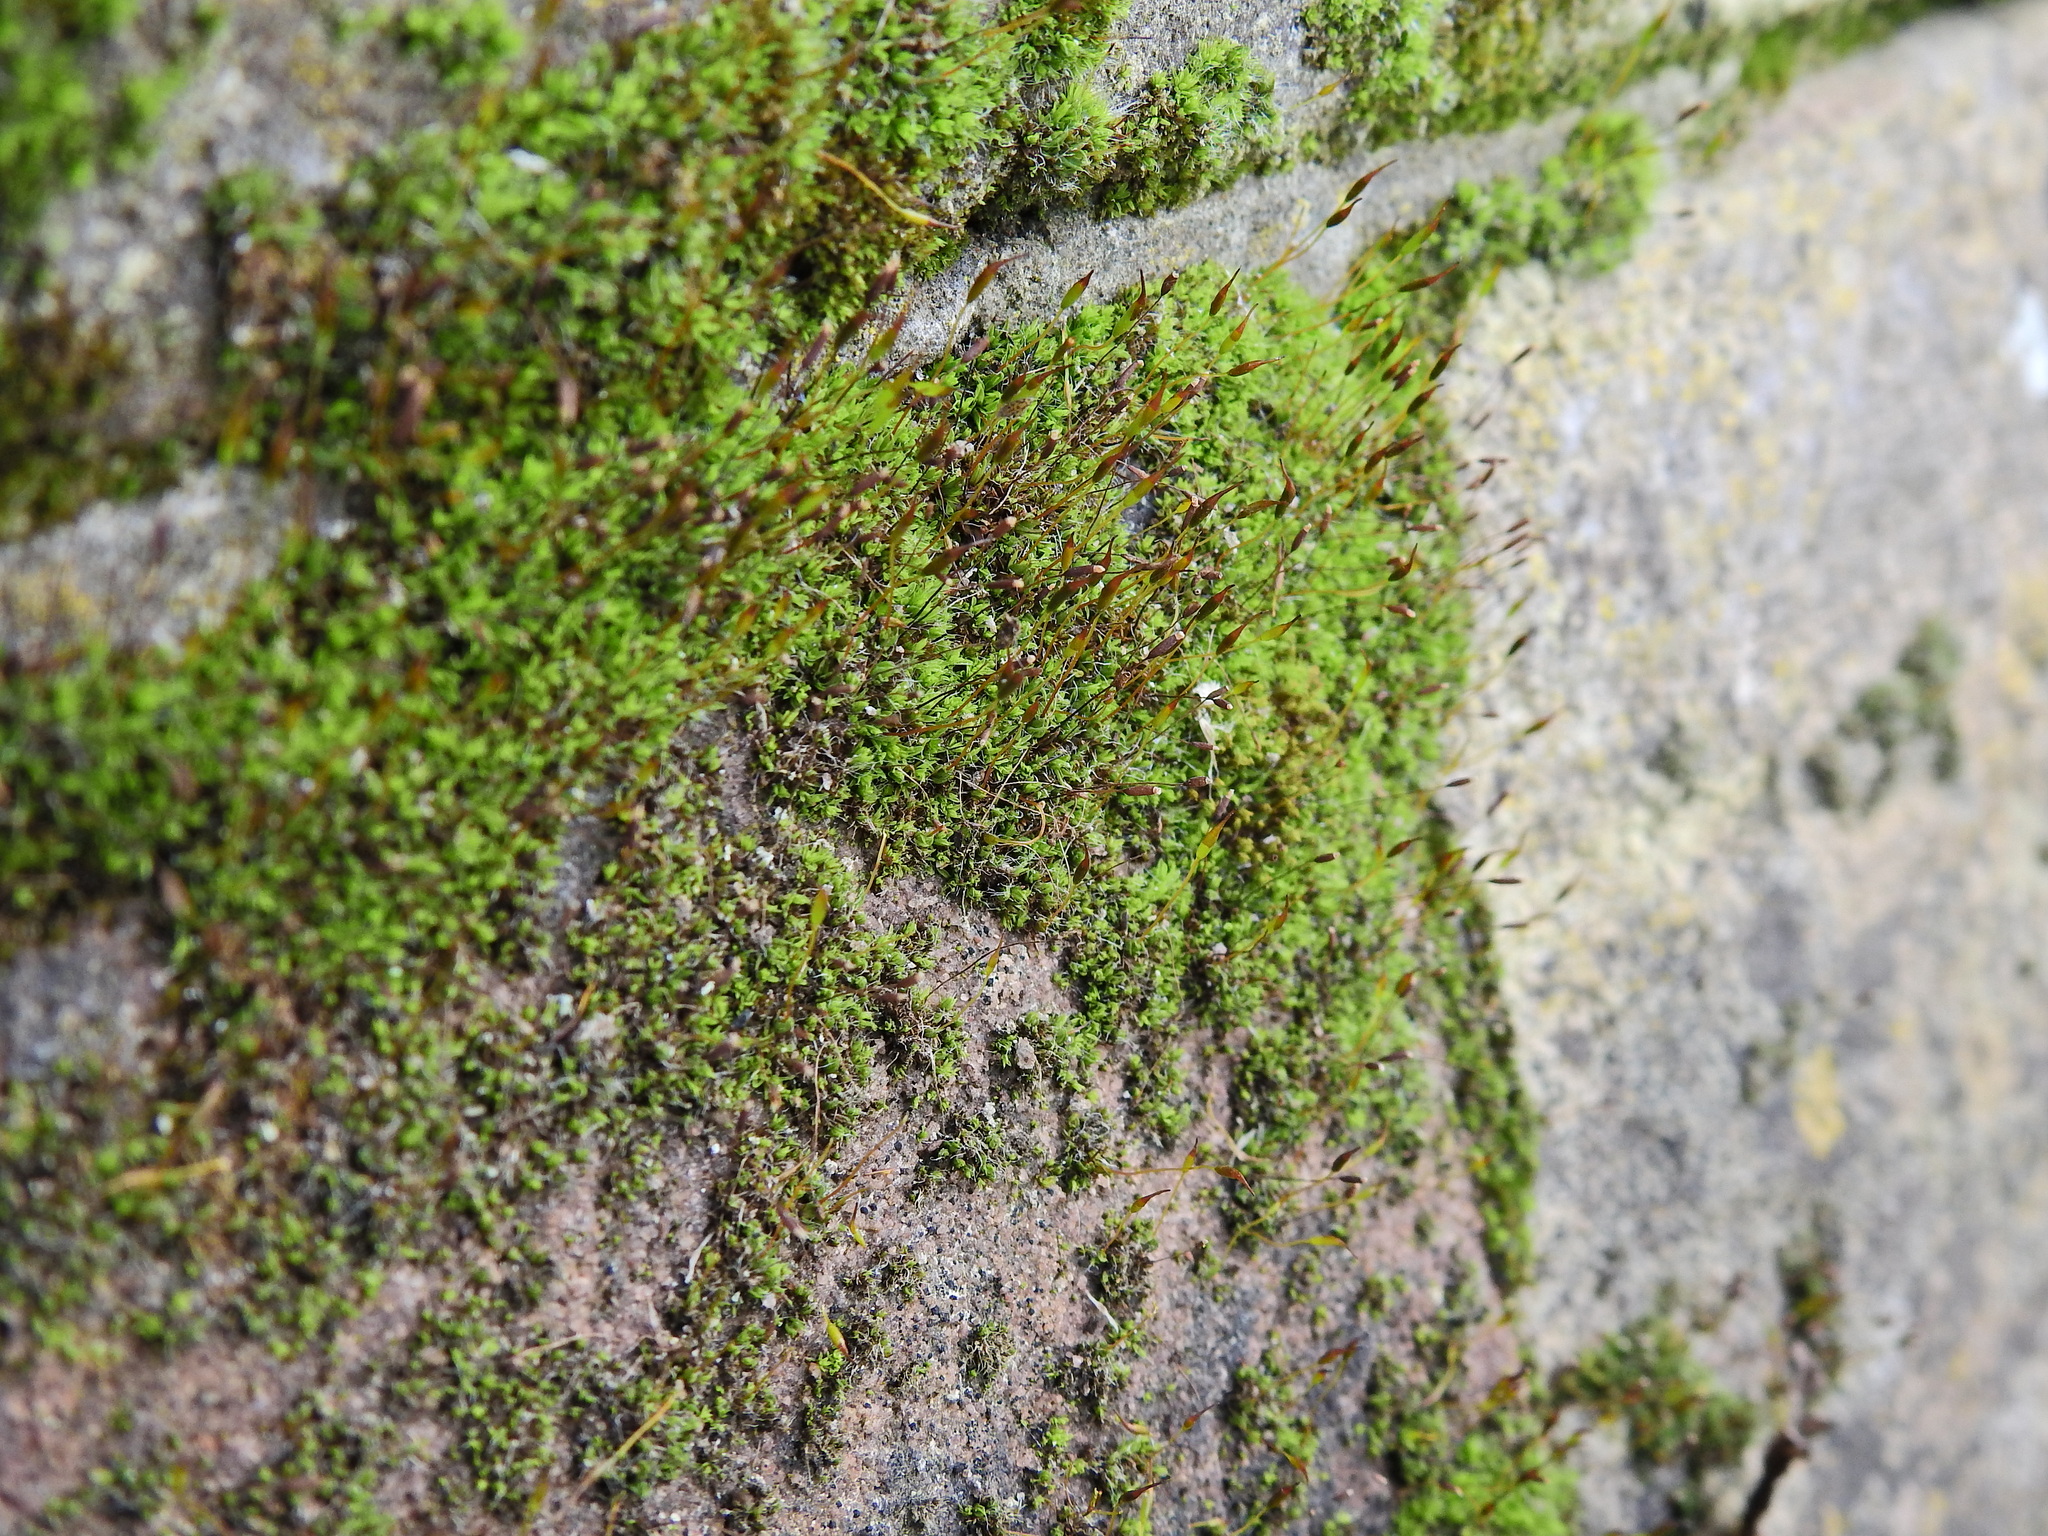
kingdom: Plantae
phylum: Bryophyta
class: Bryopsida
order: Pottiales
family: Pottiaceae
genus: Tortula
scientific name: Tortula muralis
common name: Wall screw-moss
